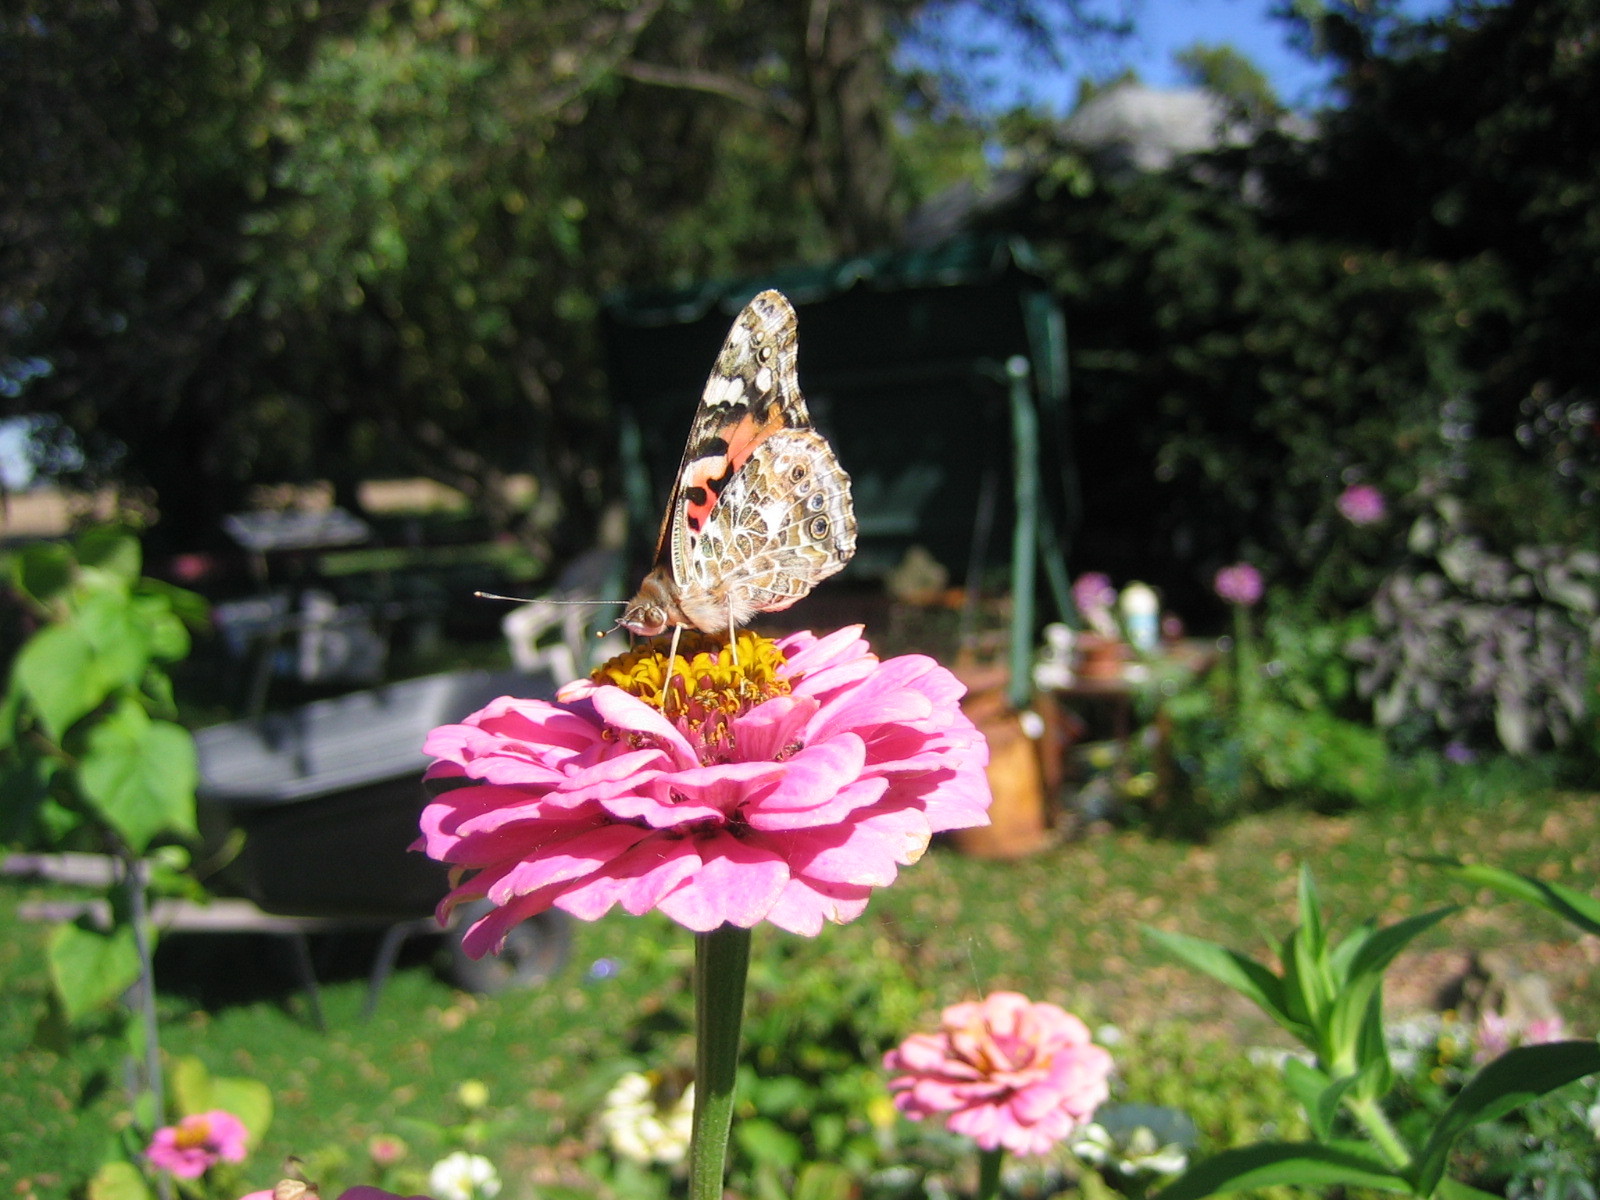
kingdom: Animalia
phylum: Arthropoda
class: Insecta
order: Lepidoptera
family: Nymphalidae
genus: Vanessa
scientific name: Vanessa cardui
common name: Painted lady
